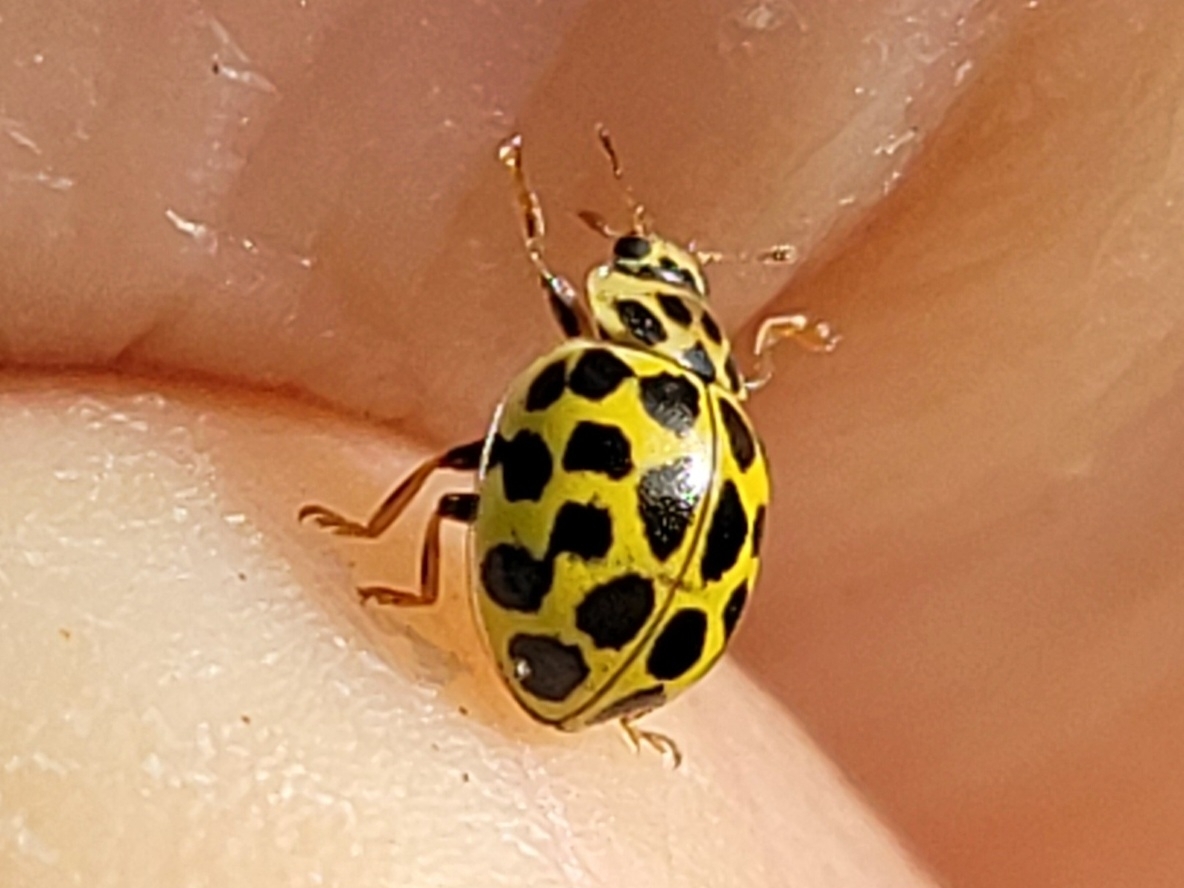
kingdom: Animalia
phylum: Arthropoda
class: Insecta
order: Coleoptera
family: Coccinellidae
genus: Psyllobora
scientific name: Psyllobora vigintiduopunctata
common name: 22-spot ladybird
